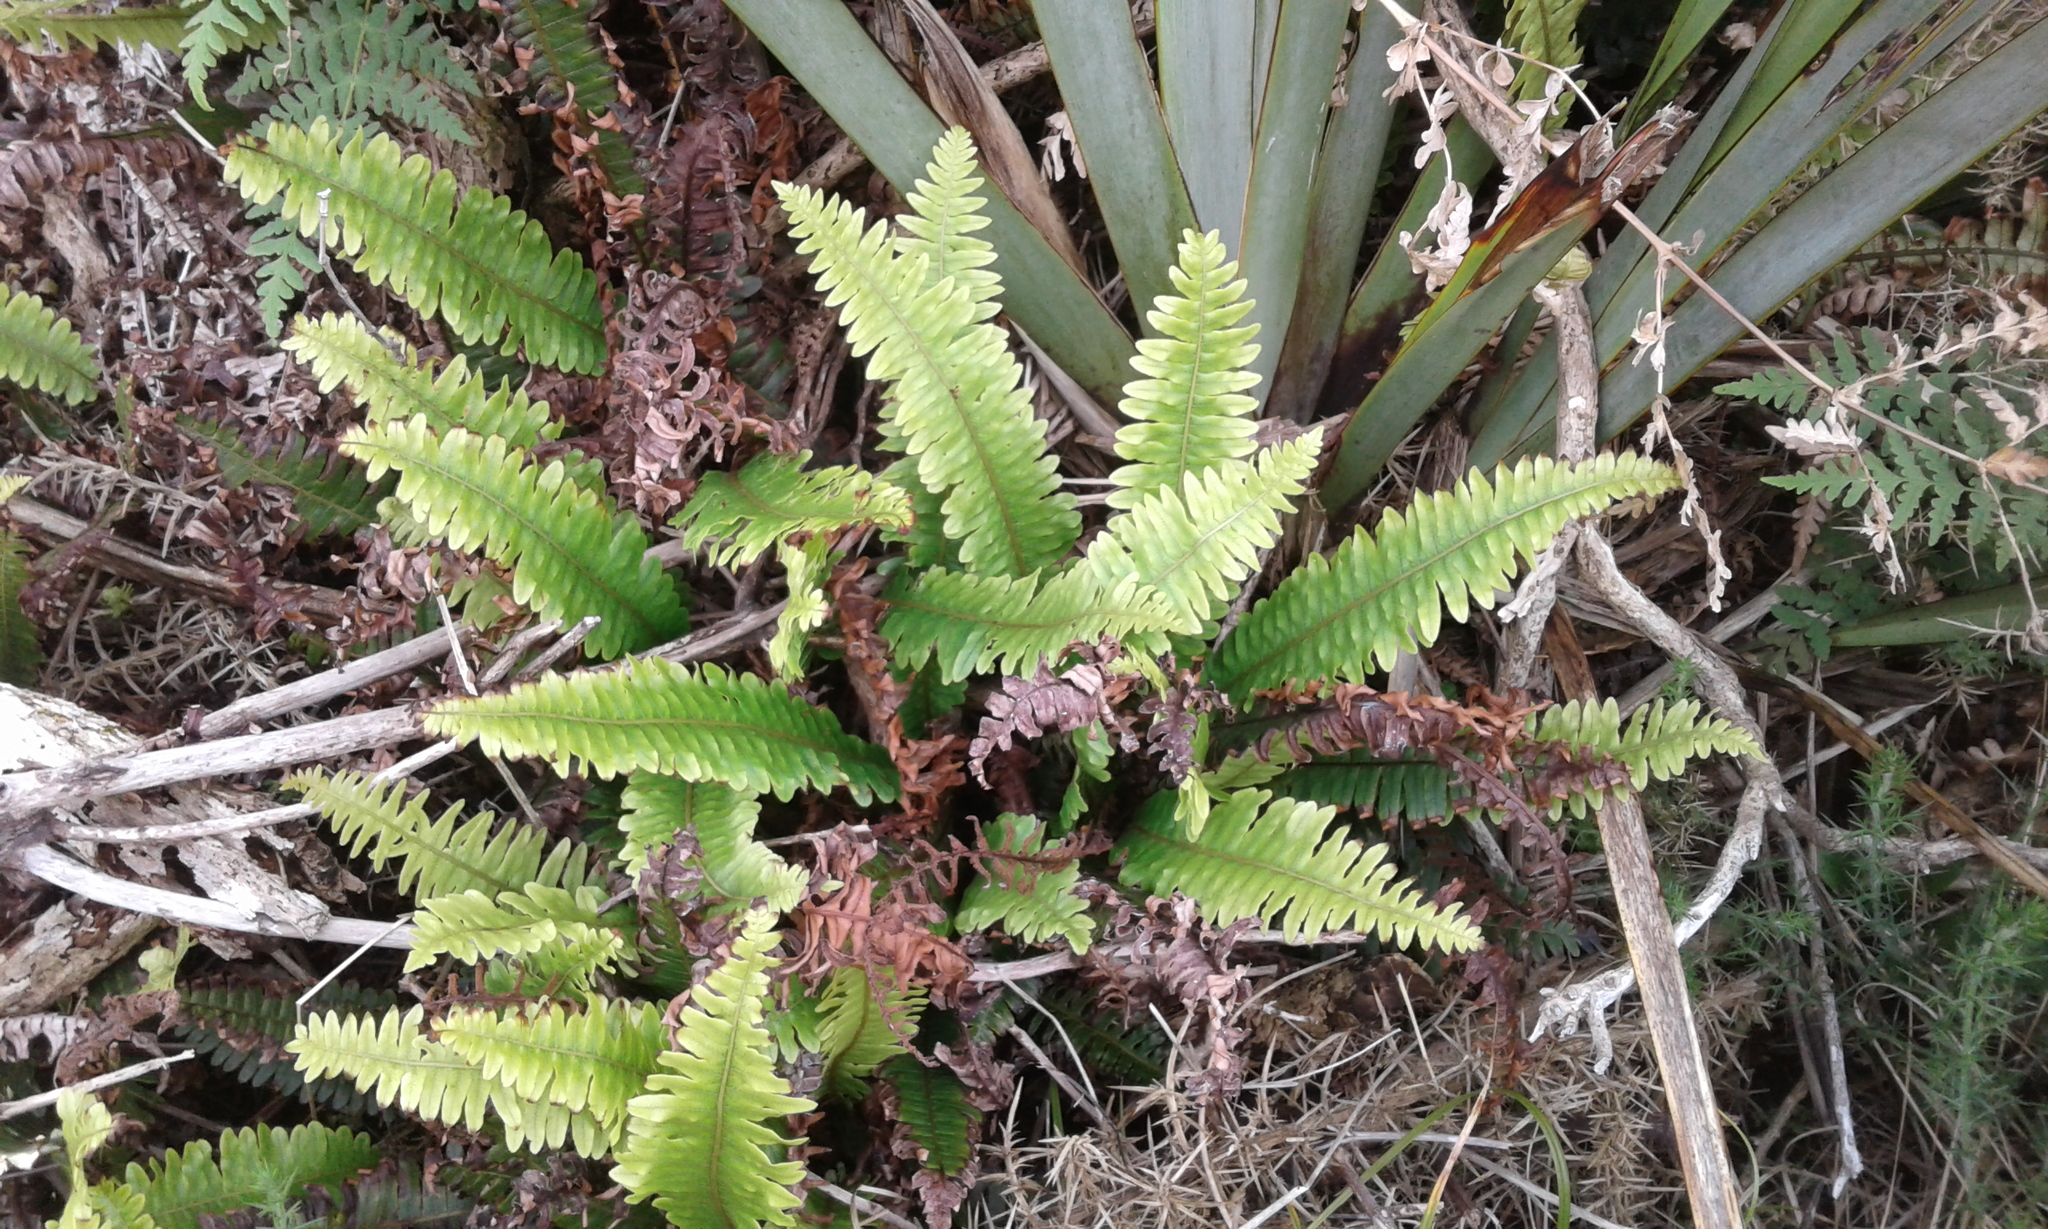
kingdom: Plantae
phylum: Tracheophyta
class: Polypodiopsida
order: Polypodiales
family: Blechnaceae
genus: Lomaria
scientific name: Lomaria discolor
